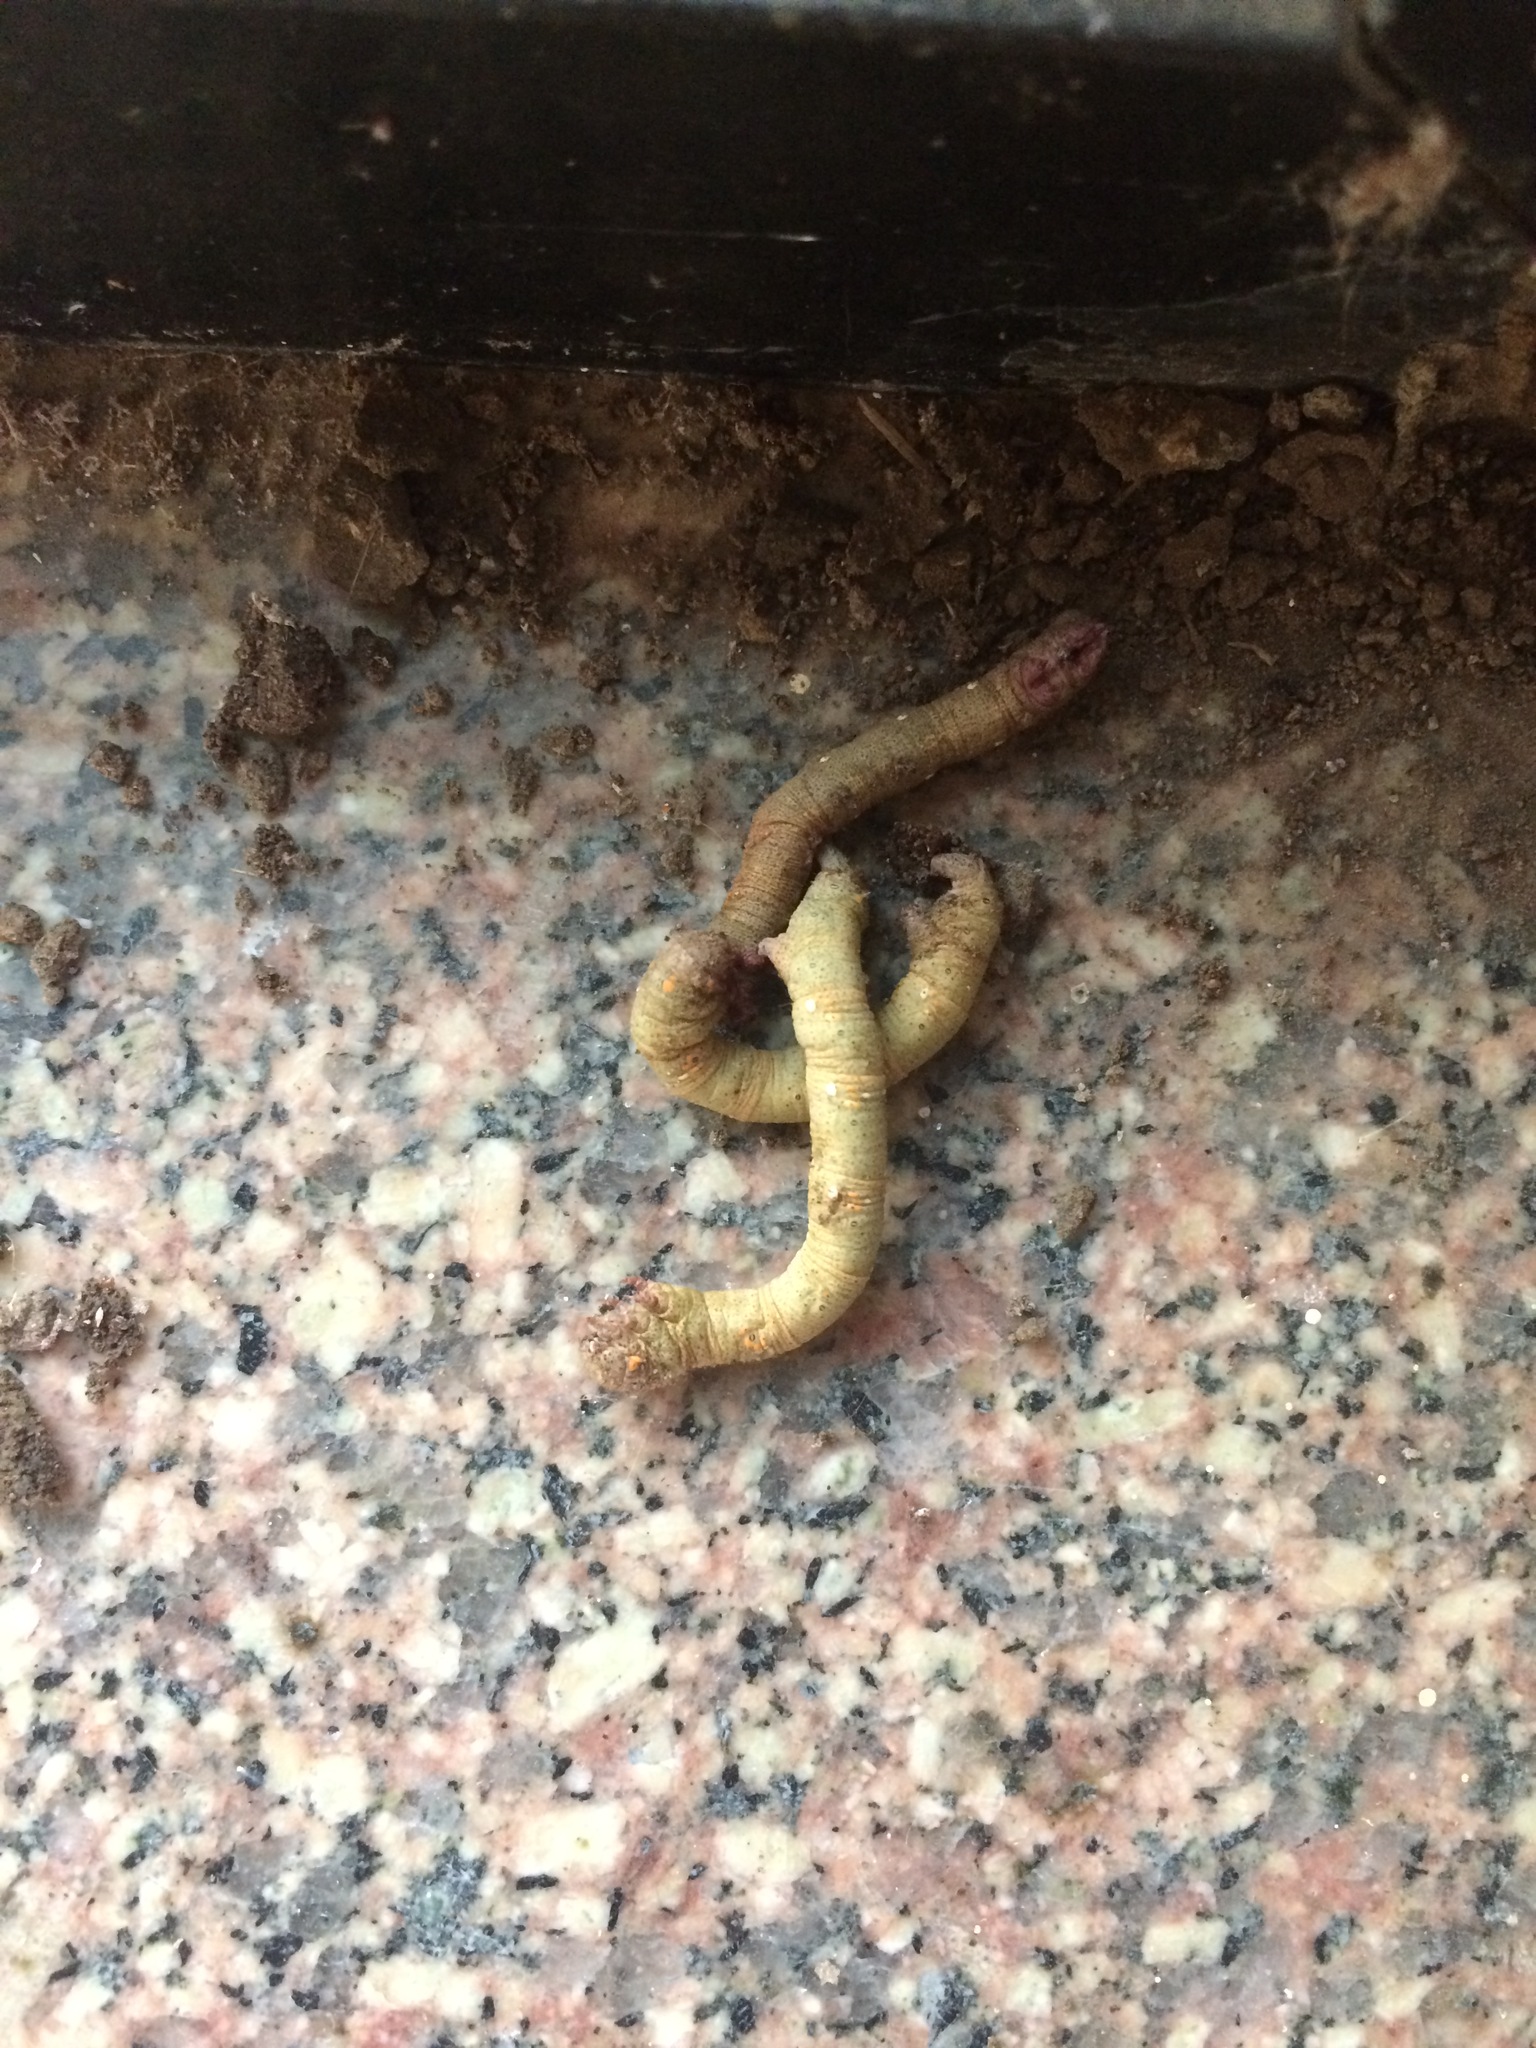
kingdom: Animalia
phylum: Arthropoda
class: Insecta
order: Hymenoptera
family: Eumenidae
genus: Delta
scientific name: Delta conoideum
